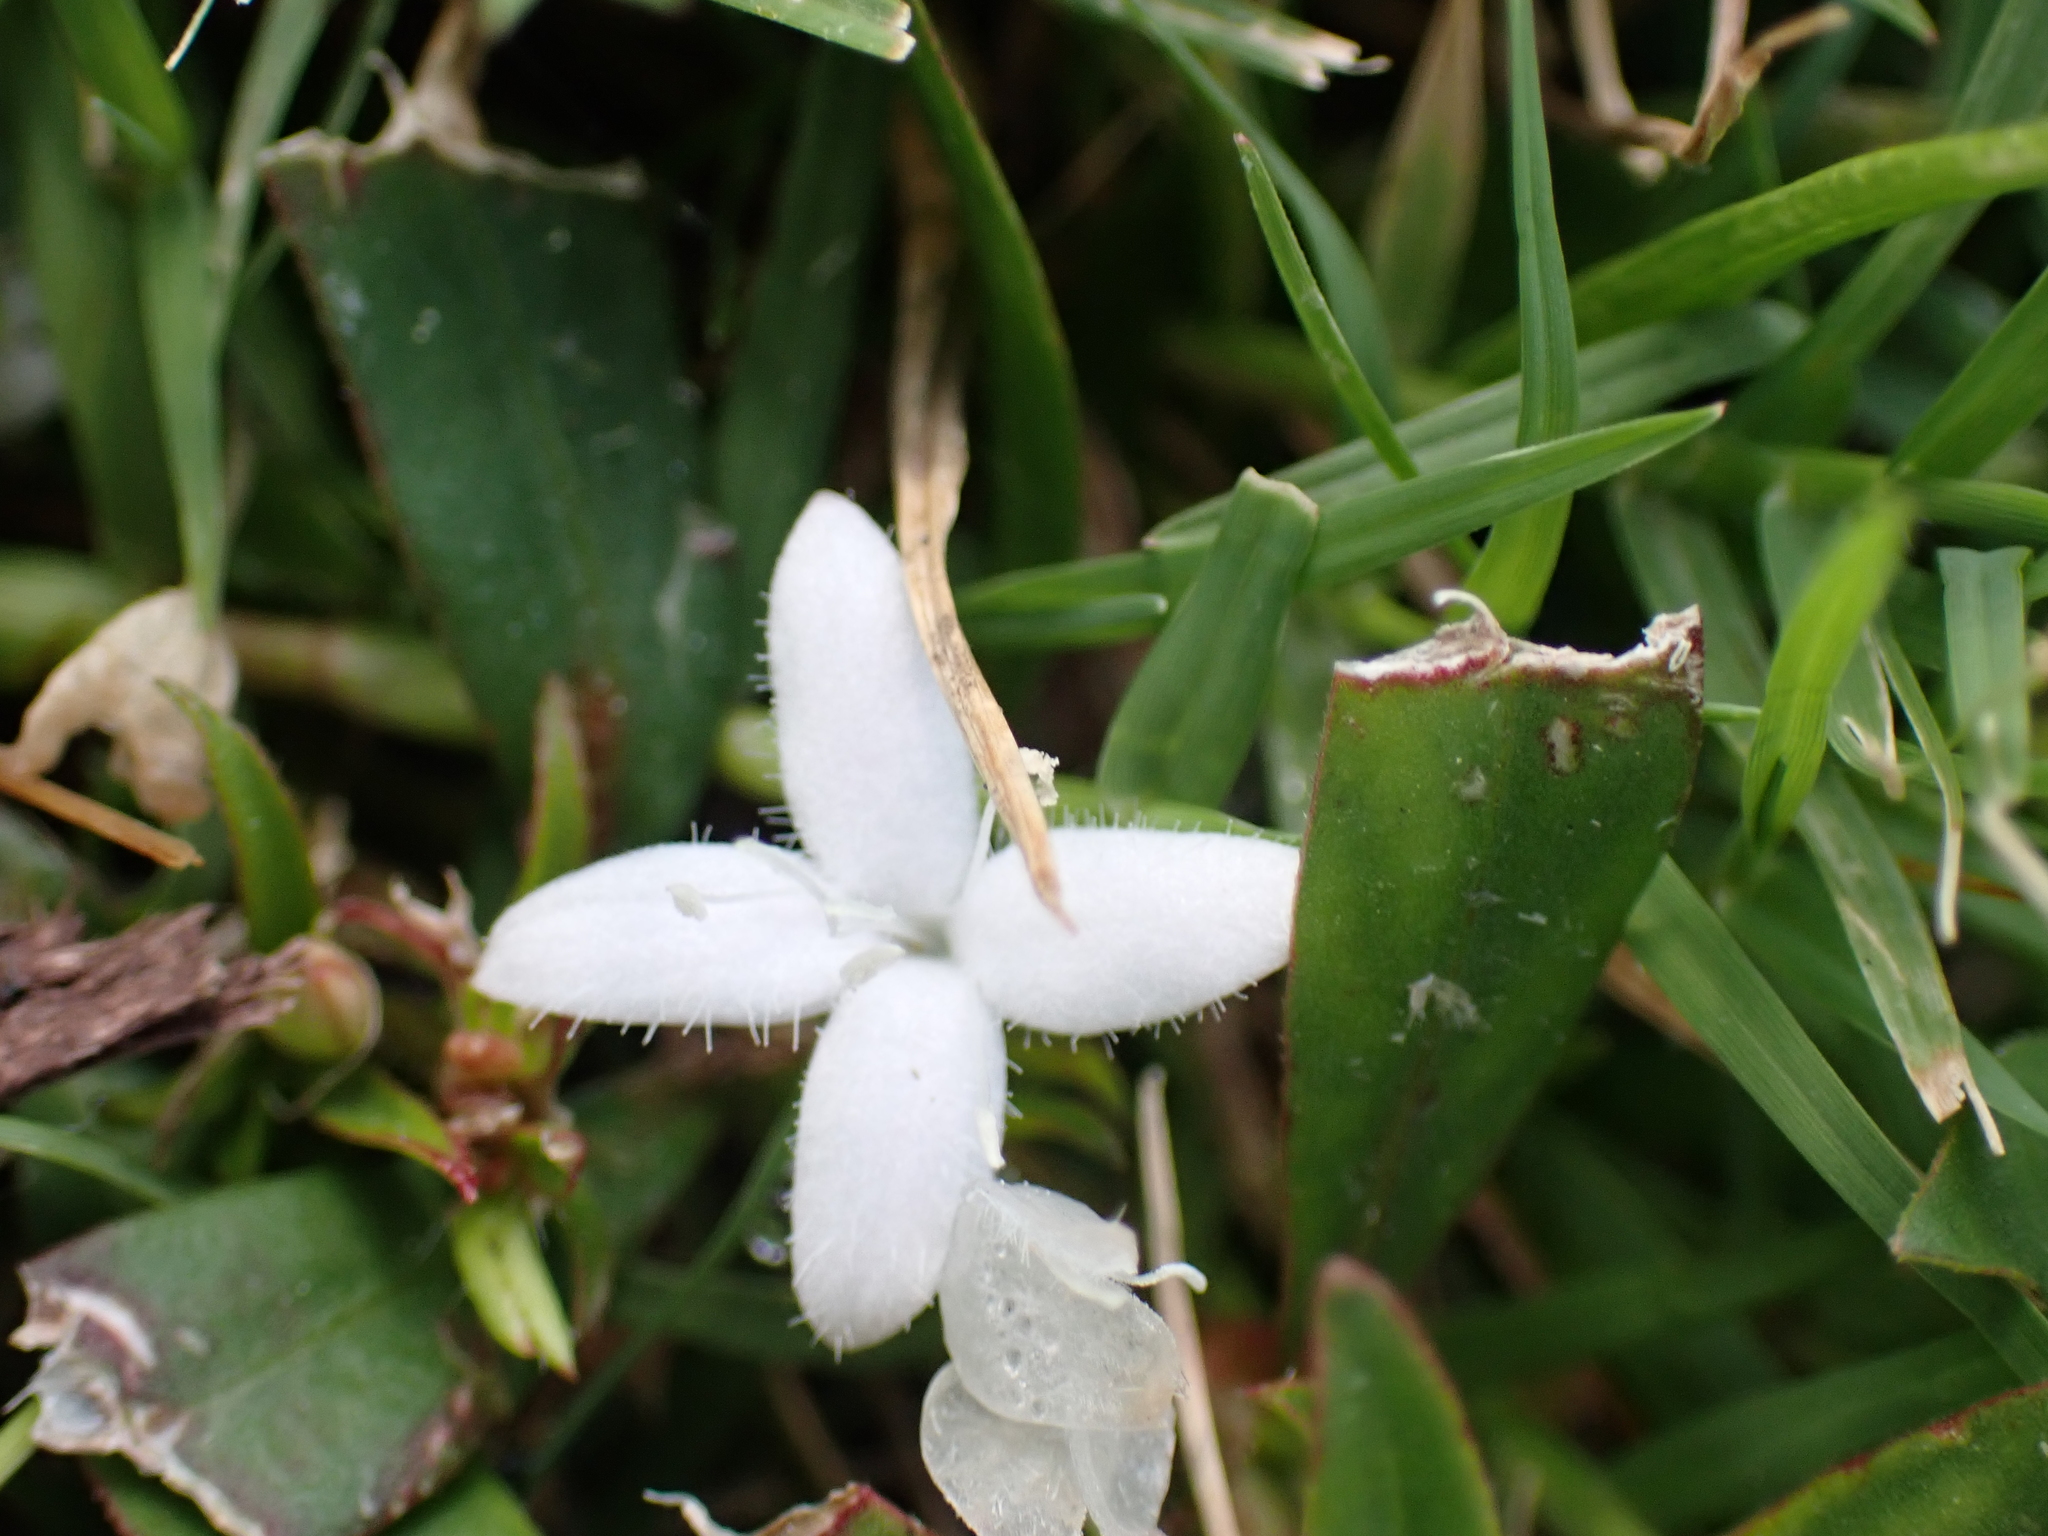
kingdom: Plantae
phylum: Tracheophyta
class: Magnoliopsida
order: Gentianales
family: Rubiaceae
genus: Diodia
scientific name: Diodia virginiana
